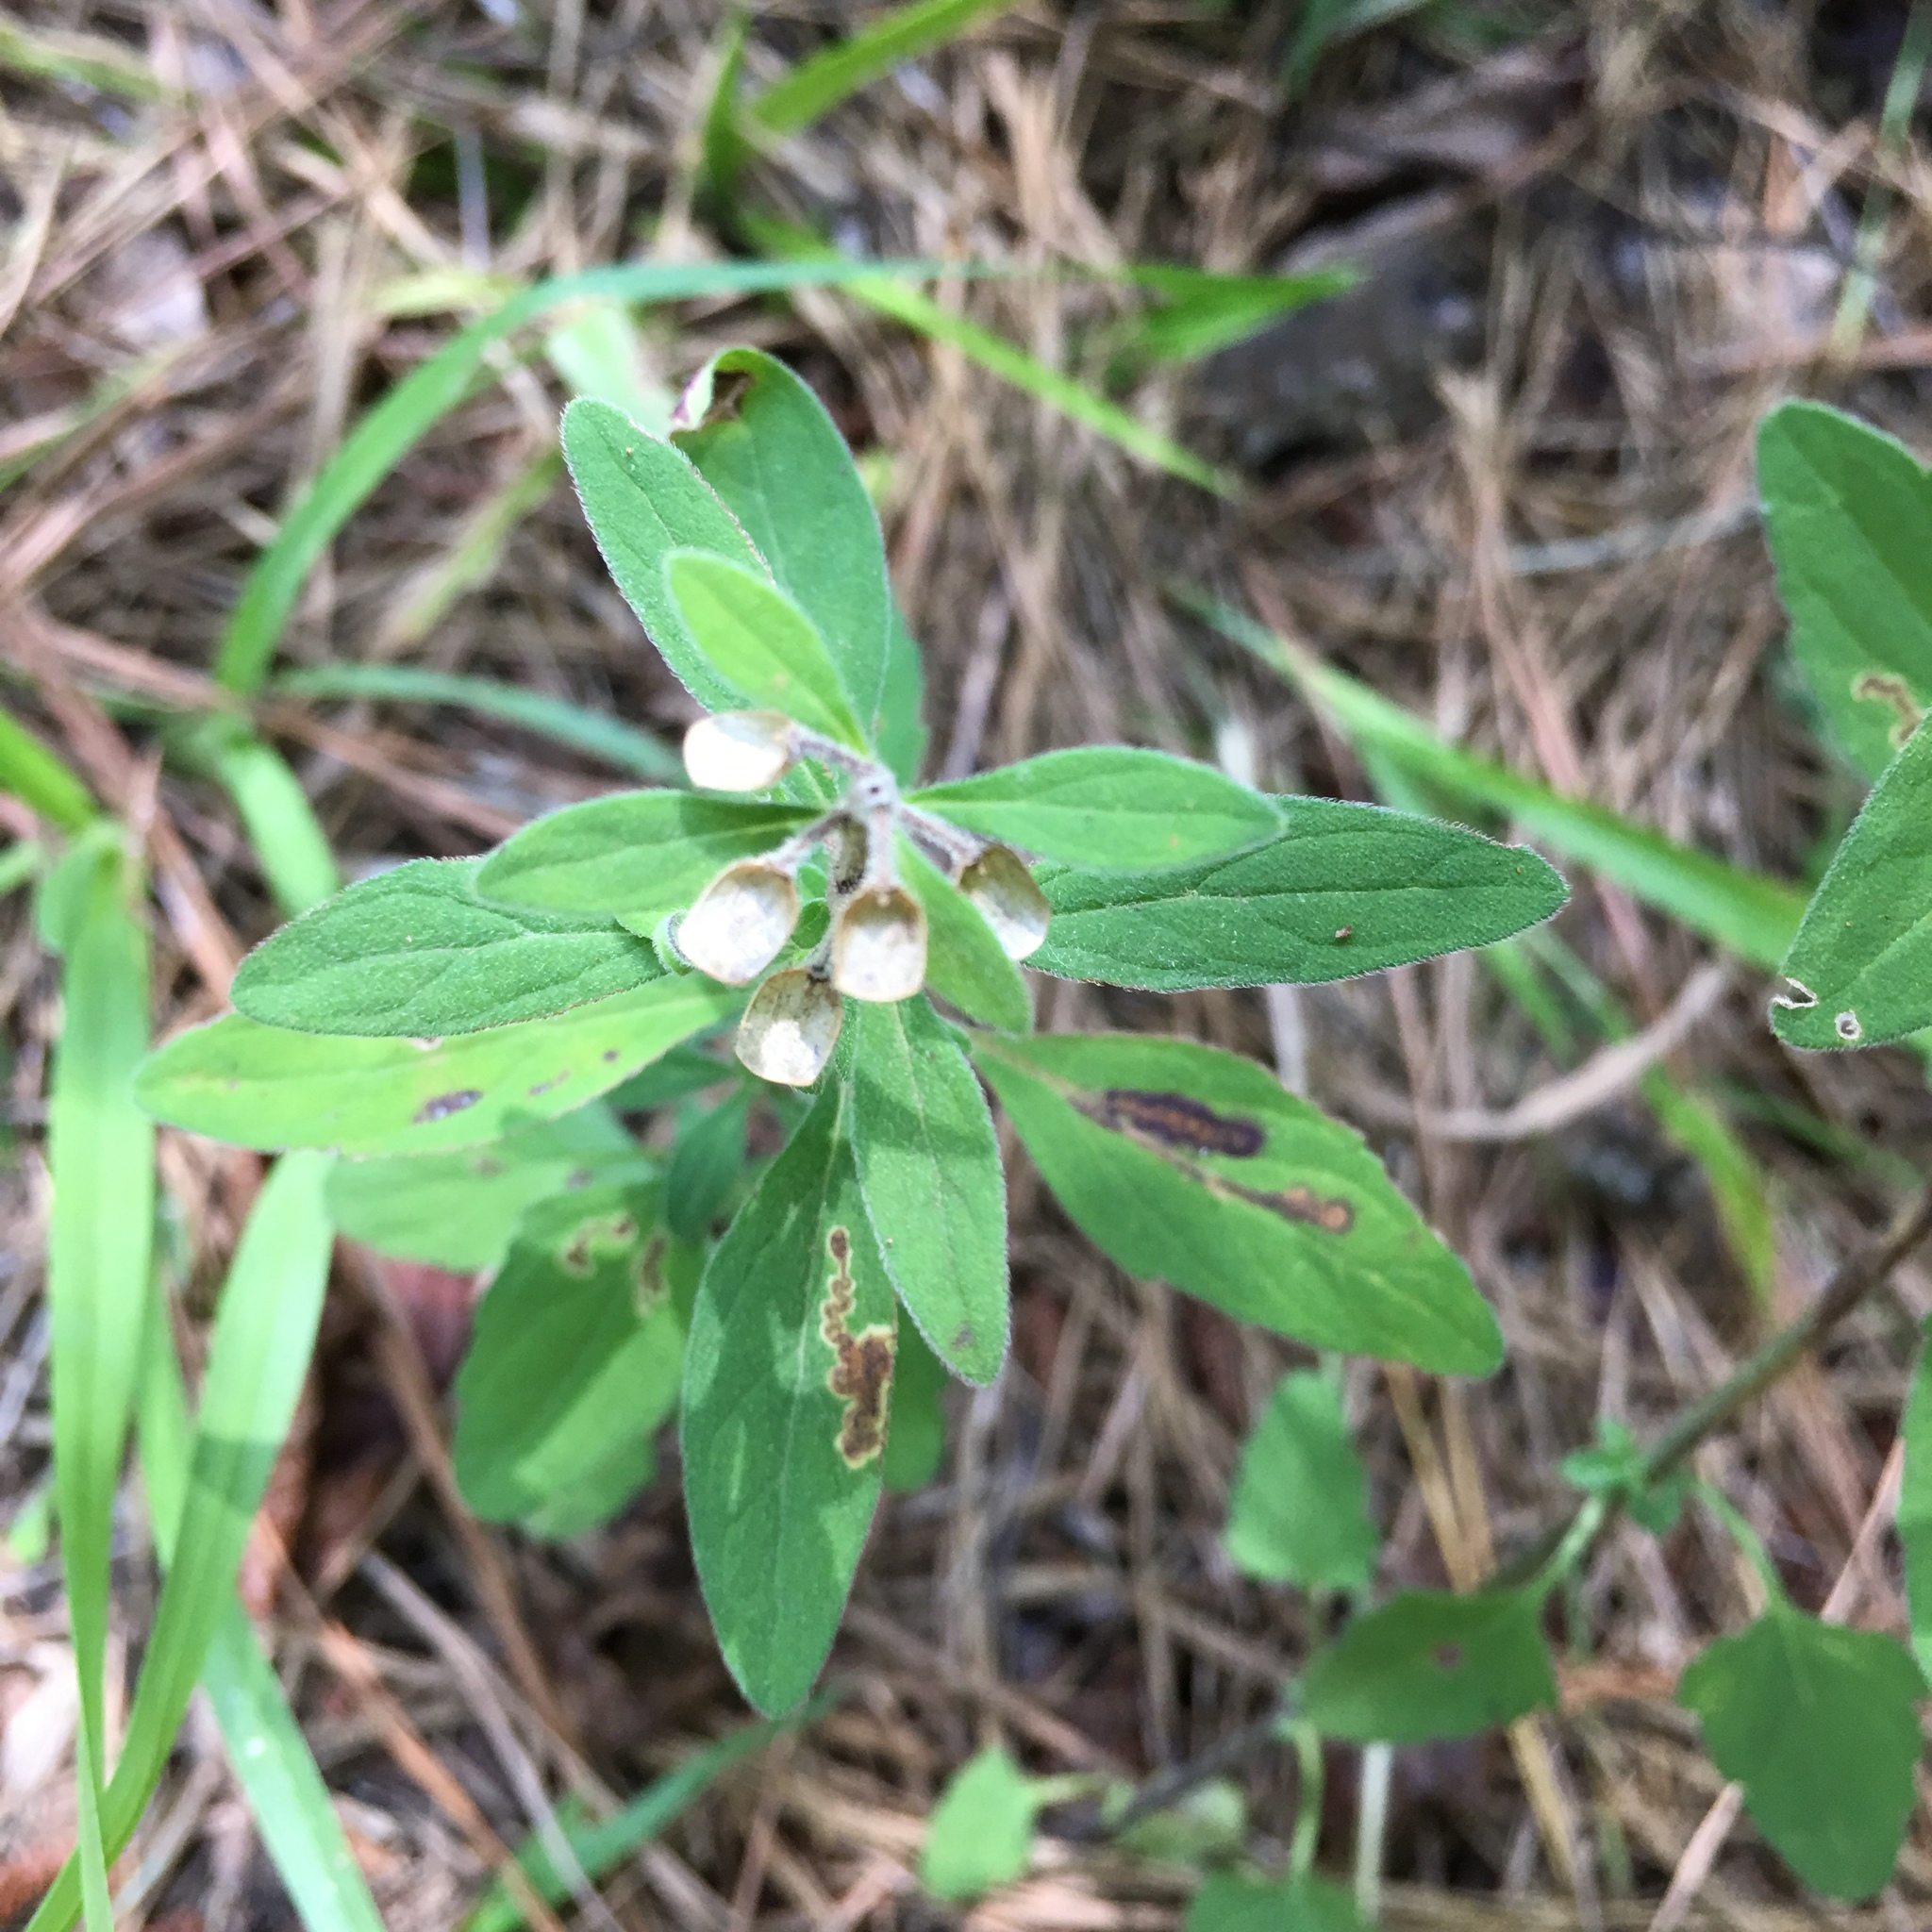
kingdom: Plantae
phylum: Tracheophyta
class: Magnoliopsida
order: Lamiales
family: Lamiaceae
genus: Scutellaria
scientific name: Scutellaria integrifolia
